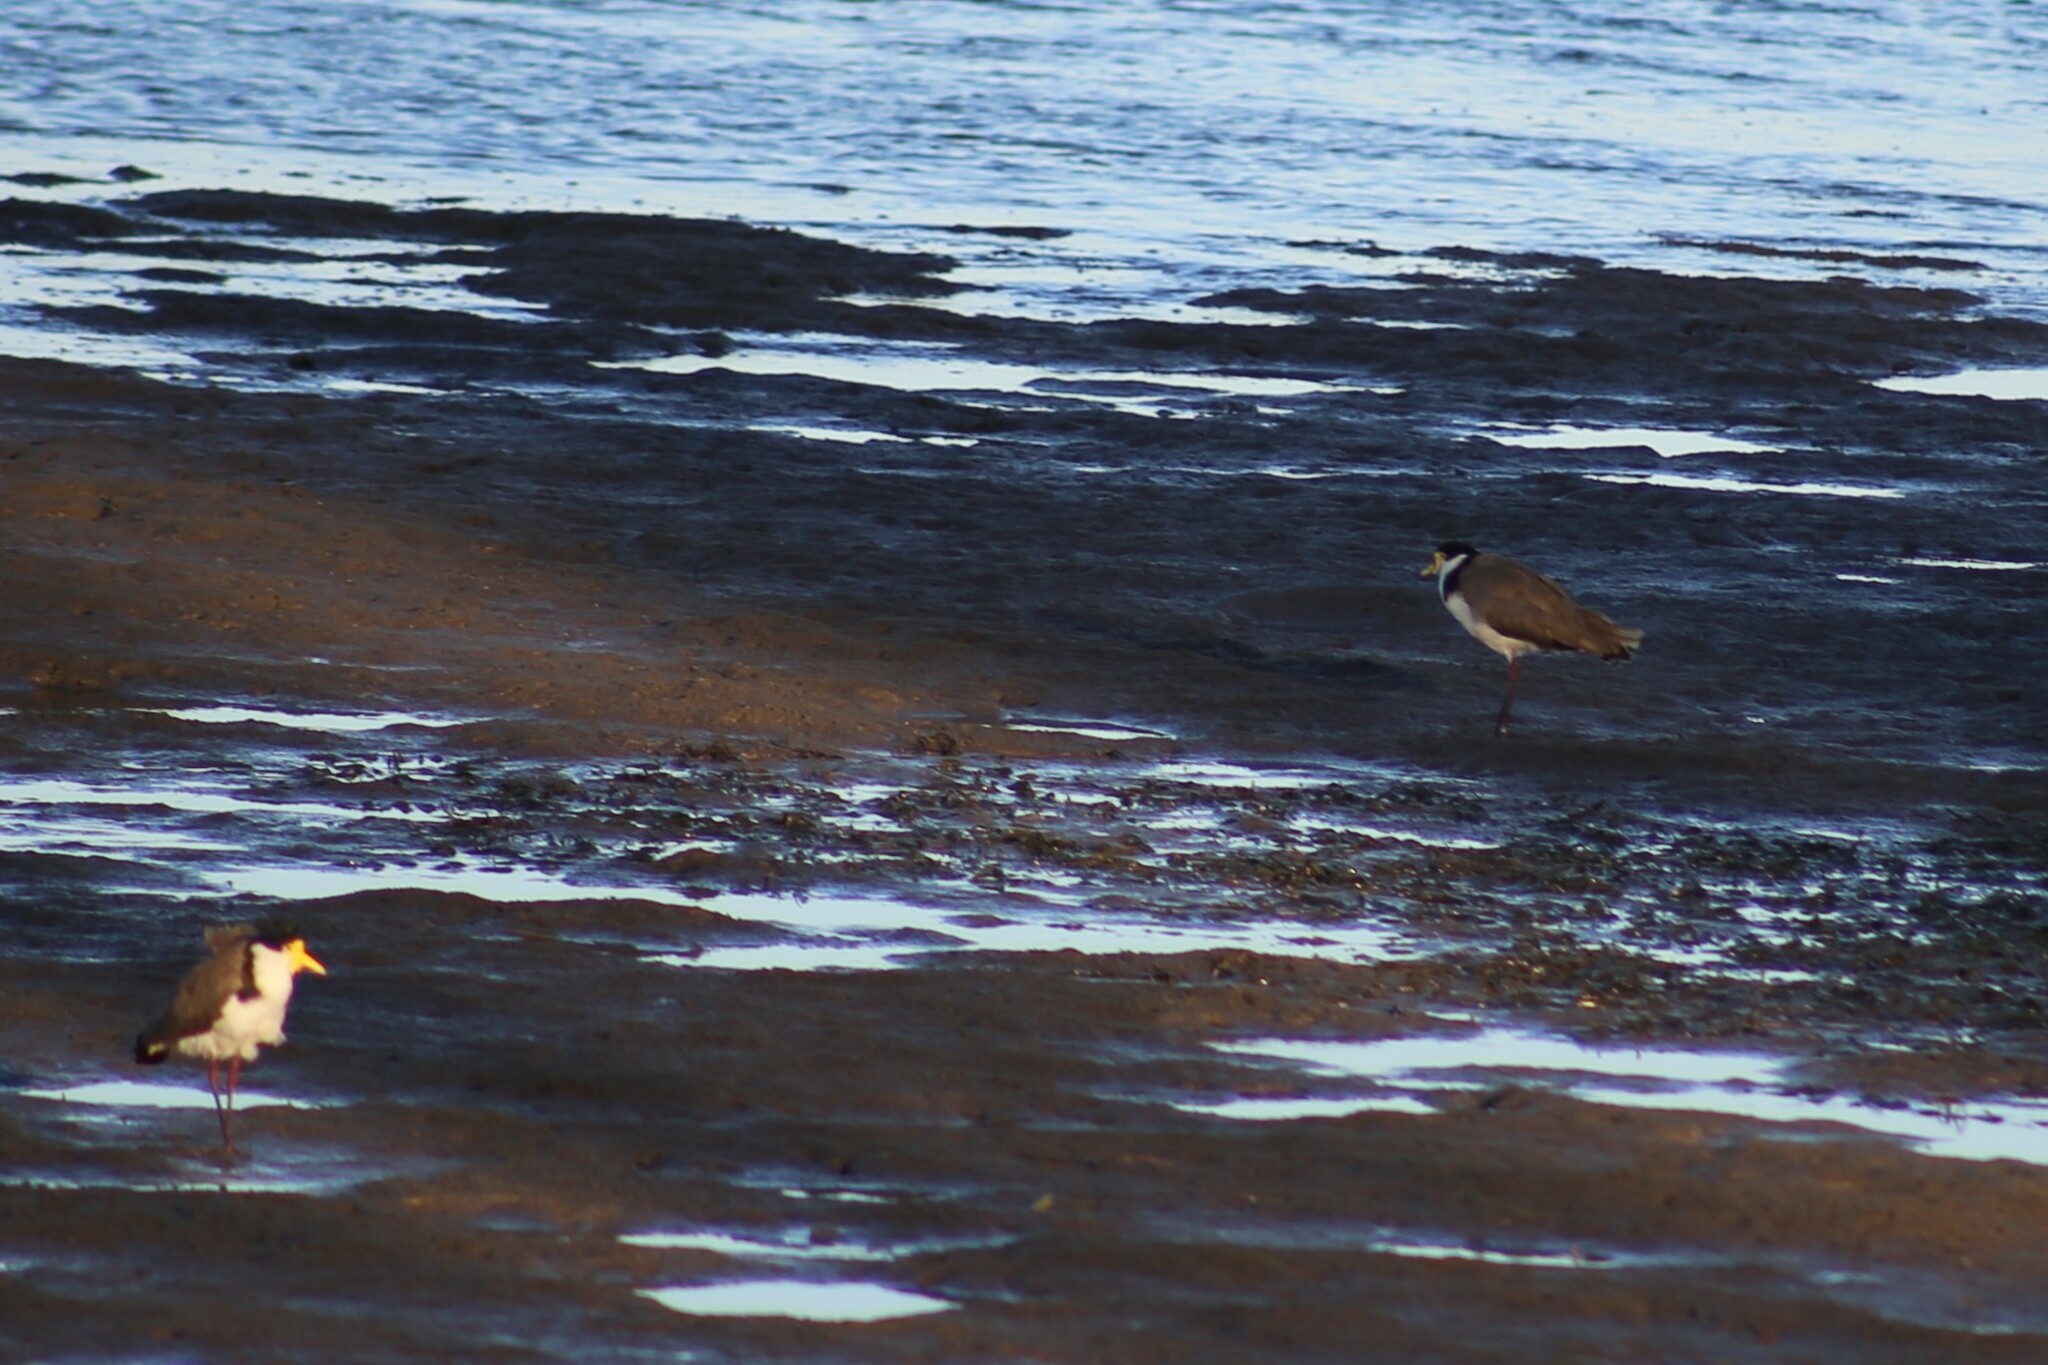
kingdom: Animalia
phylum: Chordata
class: Aves
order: Charadriiformes
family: Charadriidae
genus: Vanellus
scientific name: Vanellus miles
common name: Masked lapwing
